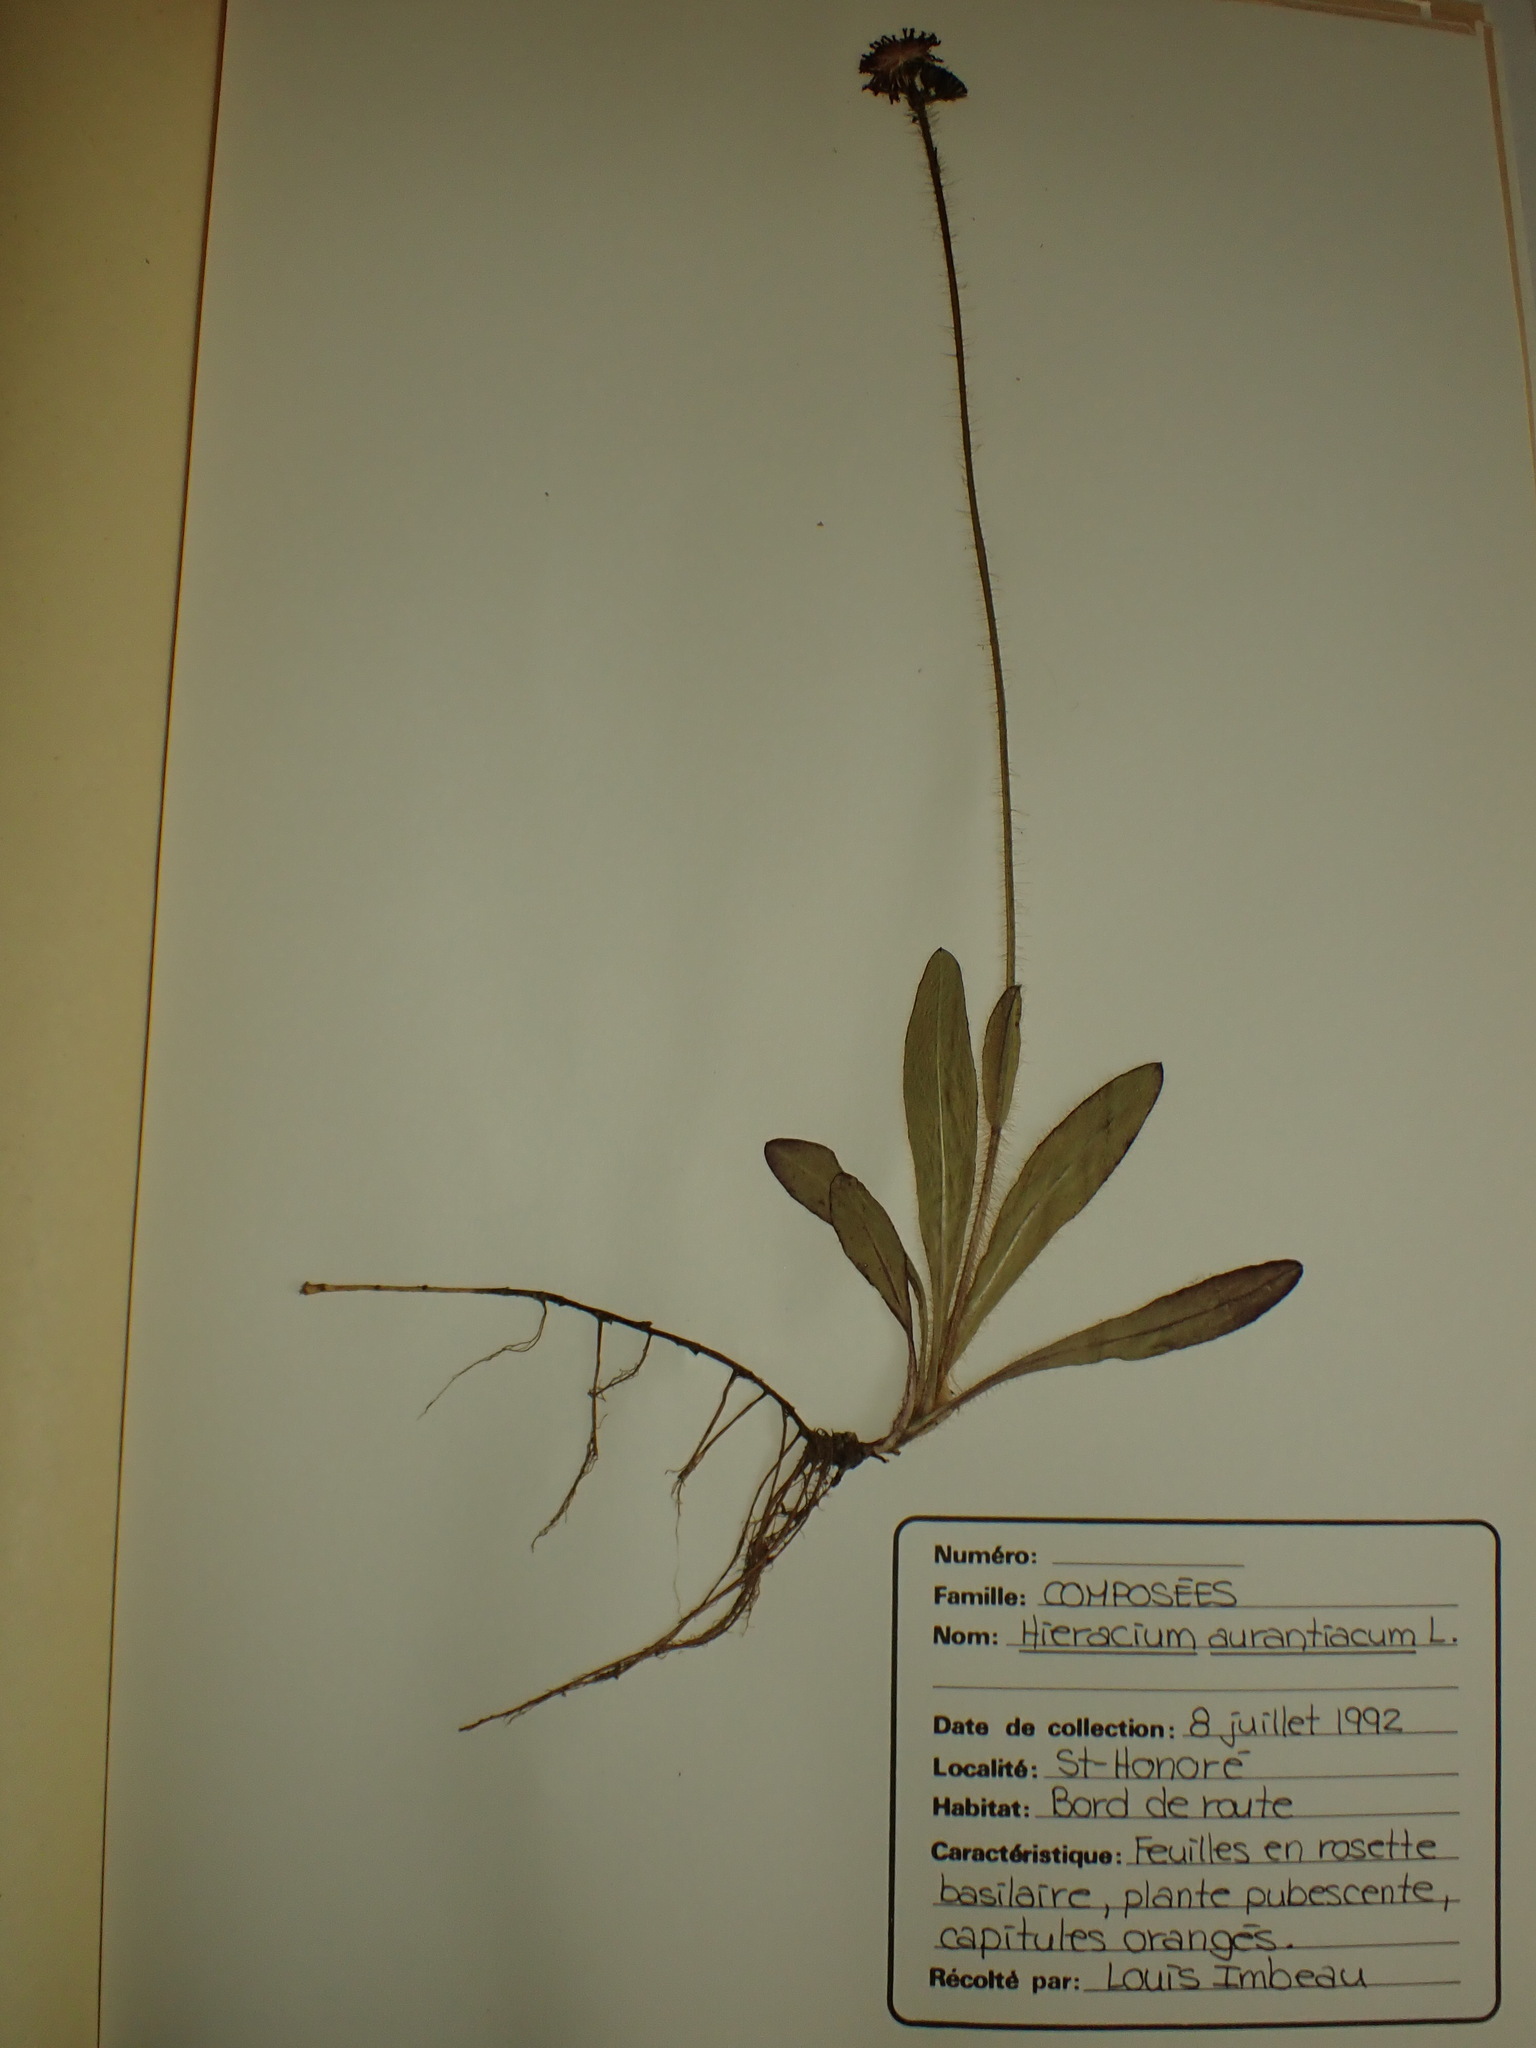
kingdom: Plantae
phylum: Tracheophyta
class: Magnoliopsida
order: Asterales
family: Asteraceae
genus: Pilosella
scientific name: Pilosella aurantiaca
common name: Fox-and-cubs
